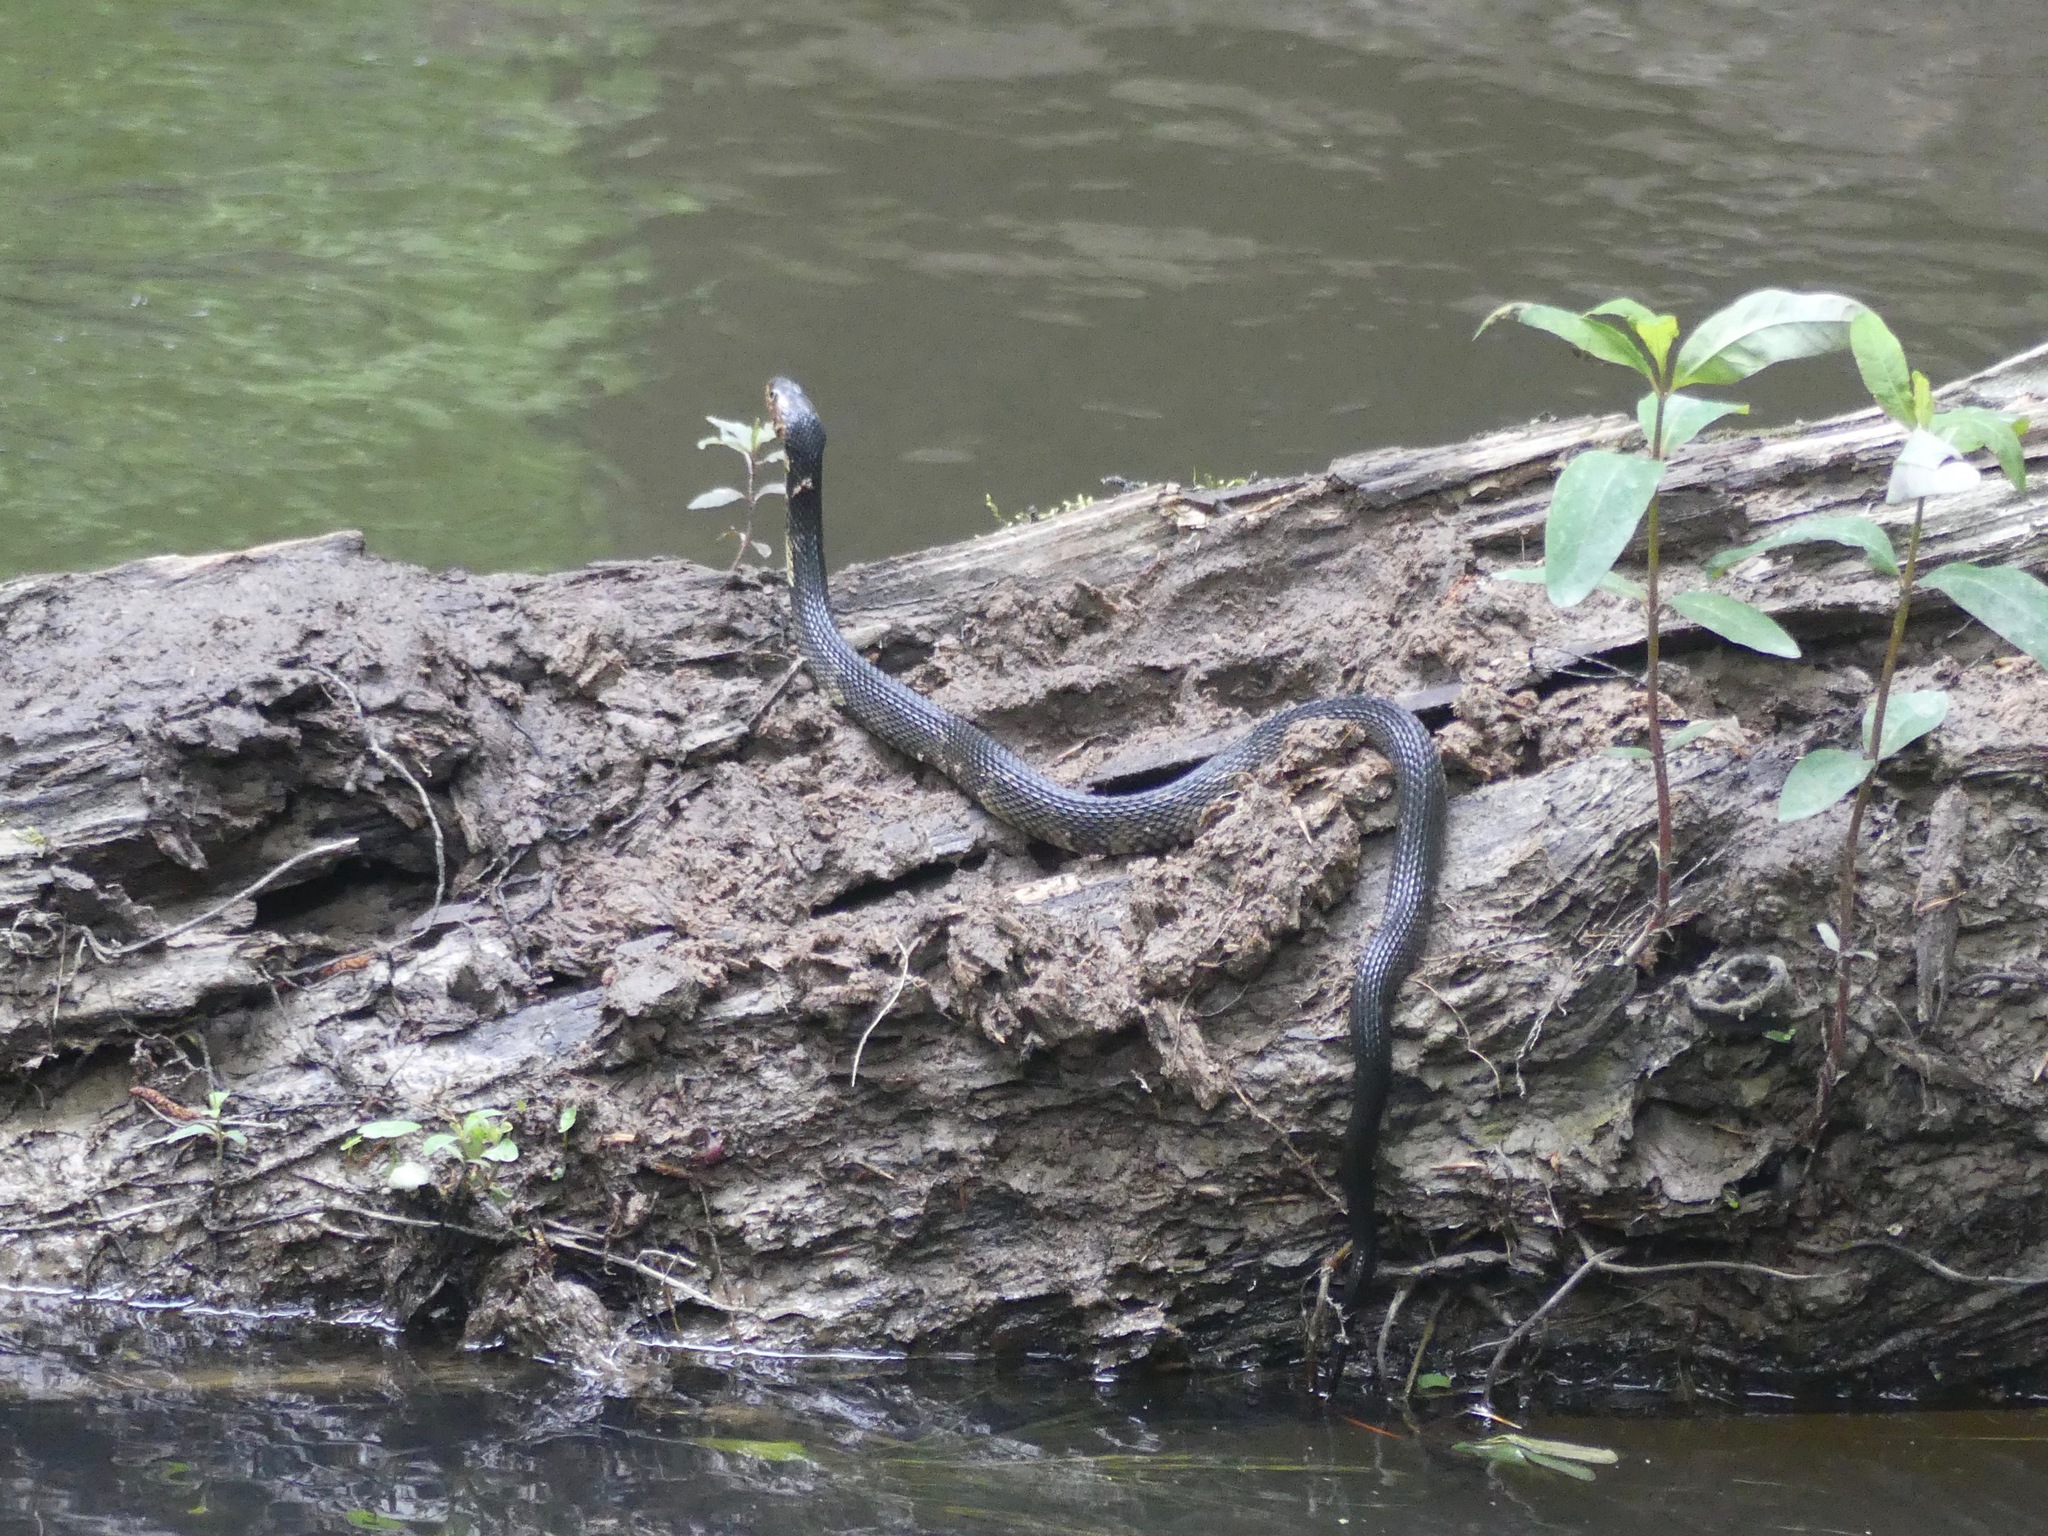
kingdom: Animalia
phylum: Chordata
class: Squamata
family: Colubridae
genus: Nerodia
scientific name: Nerodia fasciata
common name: Southern water snake
